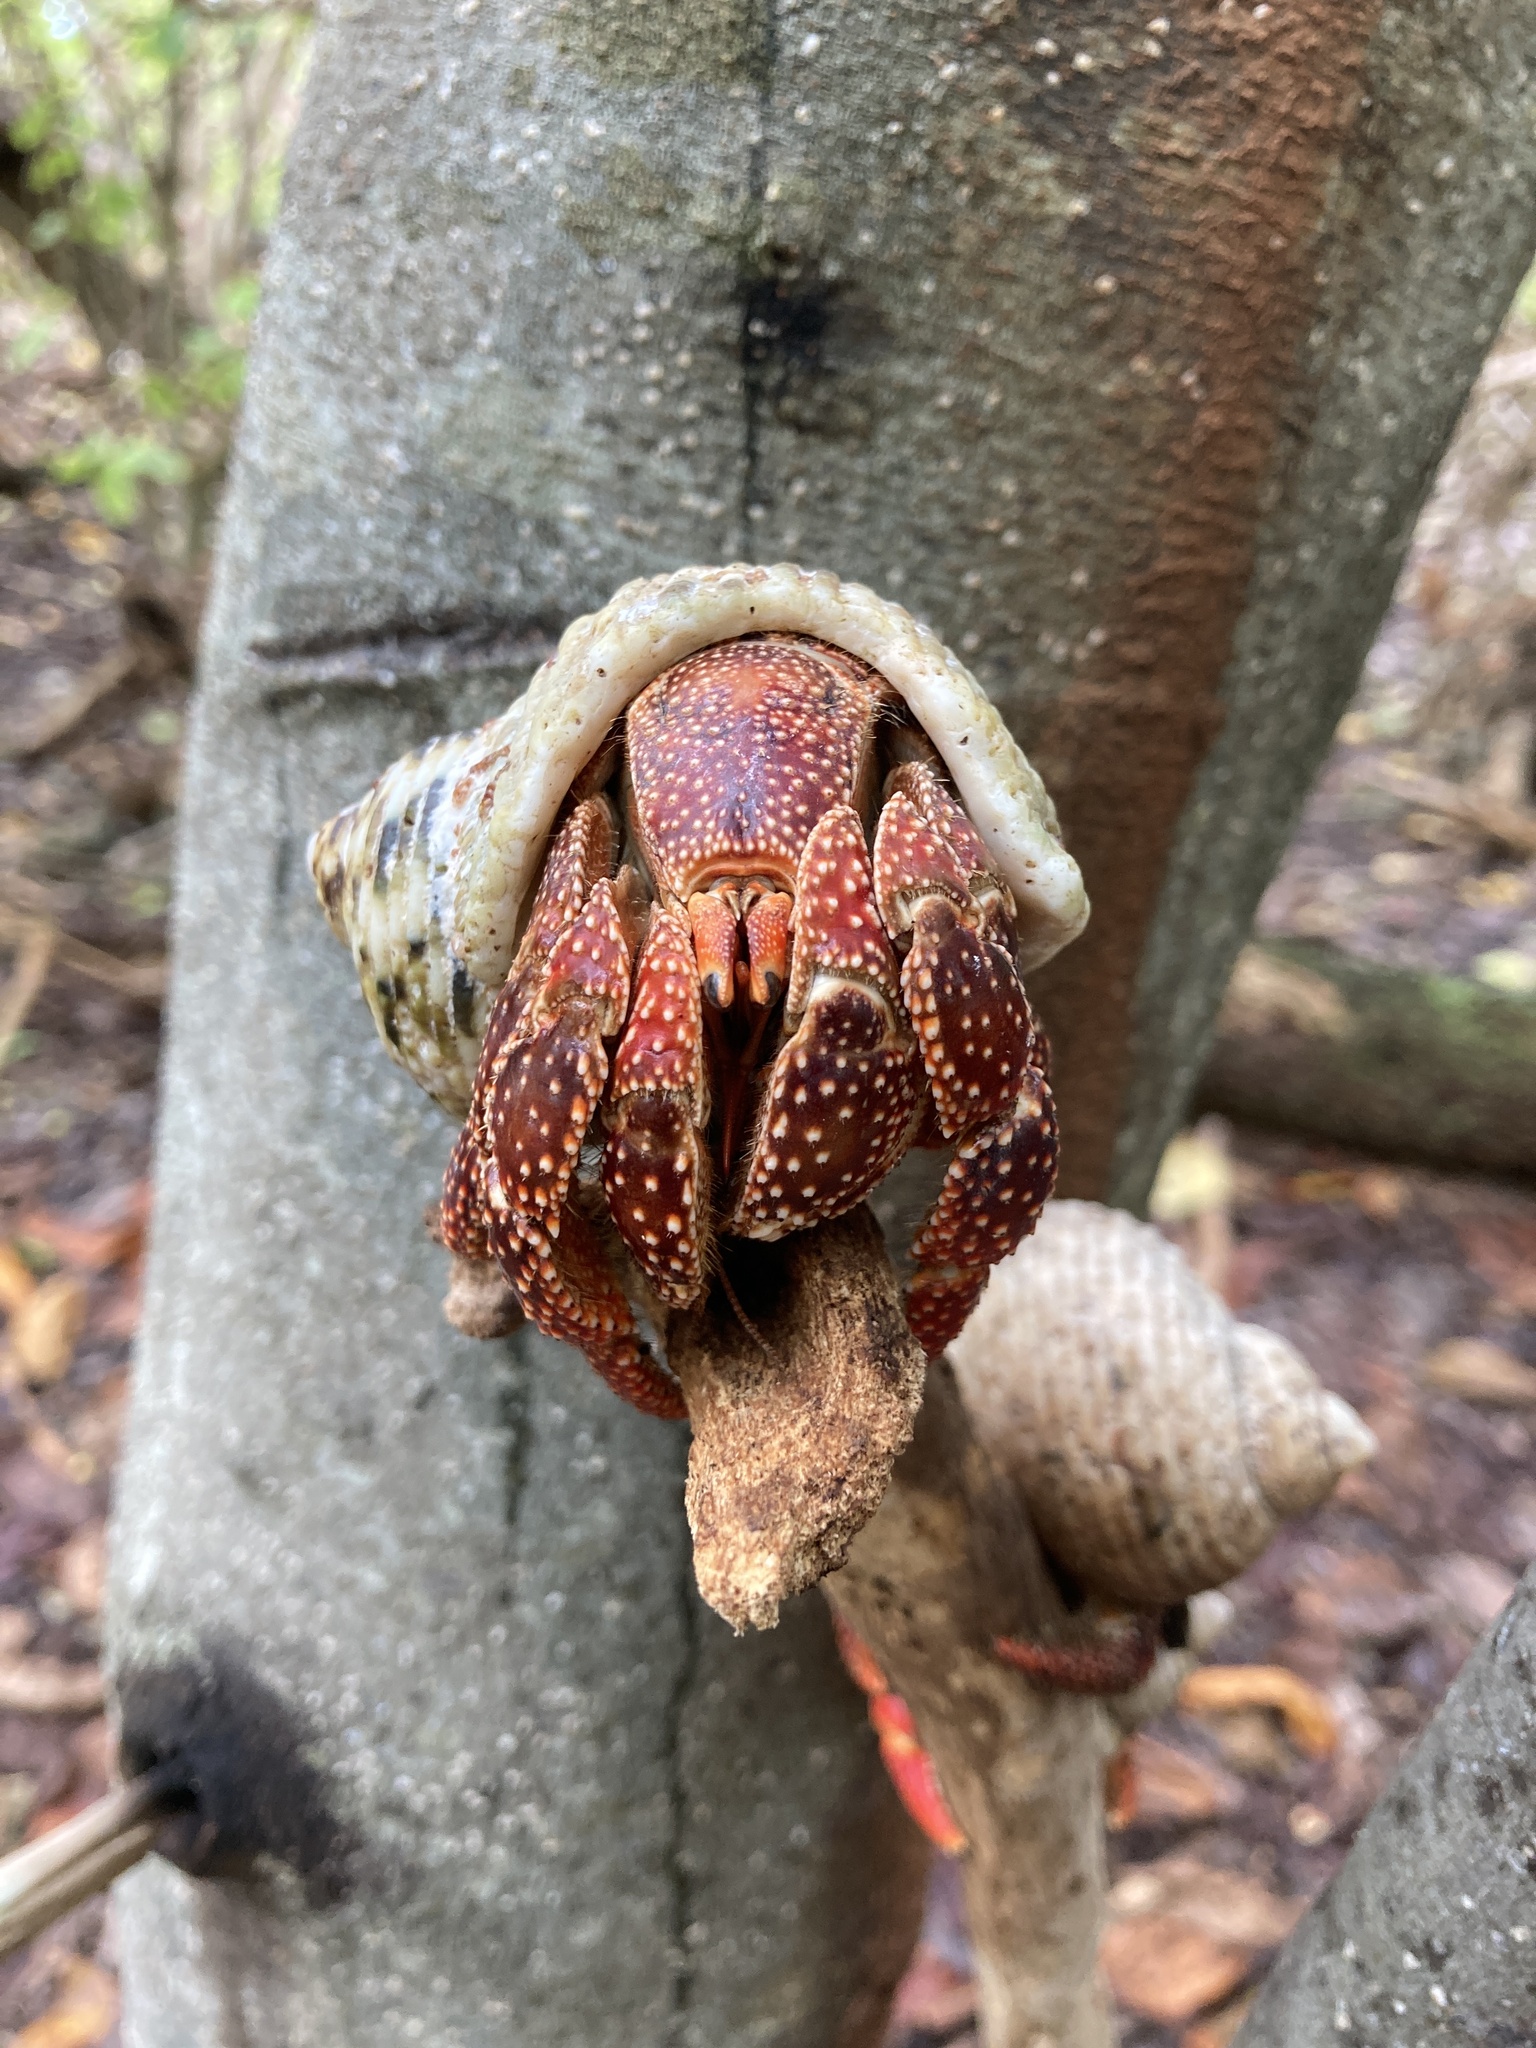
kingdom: Animalia
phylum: Arthropoda
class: Malacostraca
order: Decapoda
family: Coenobitidae
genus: Coenobita
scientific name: Coenobita perlatus
